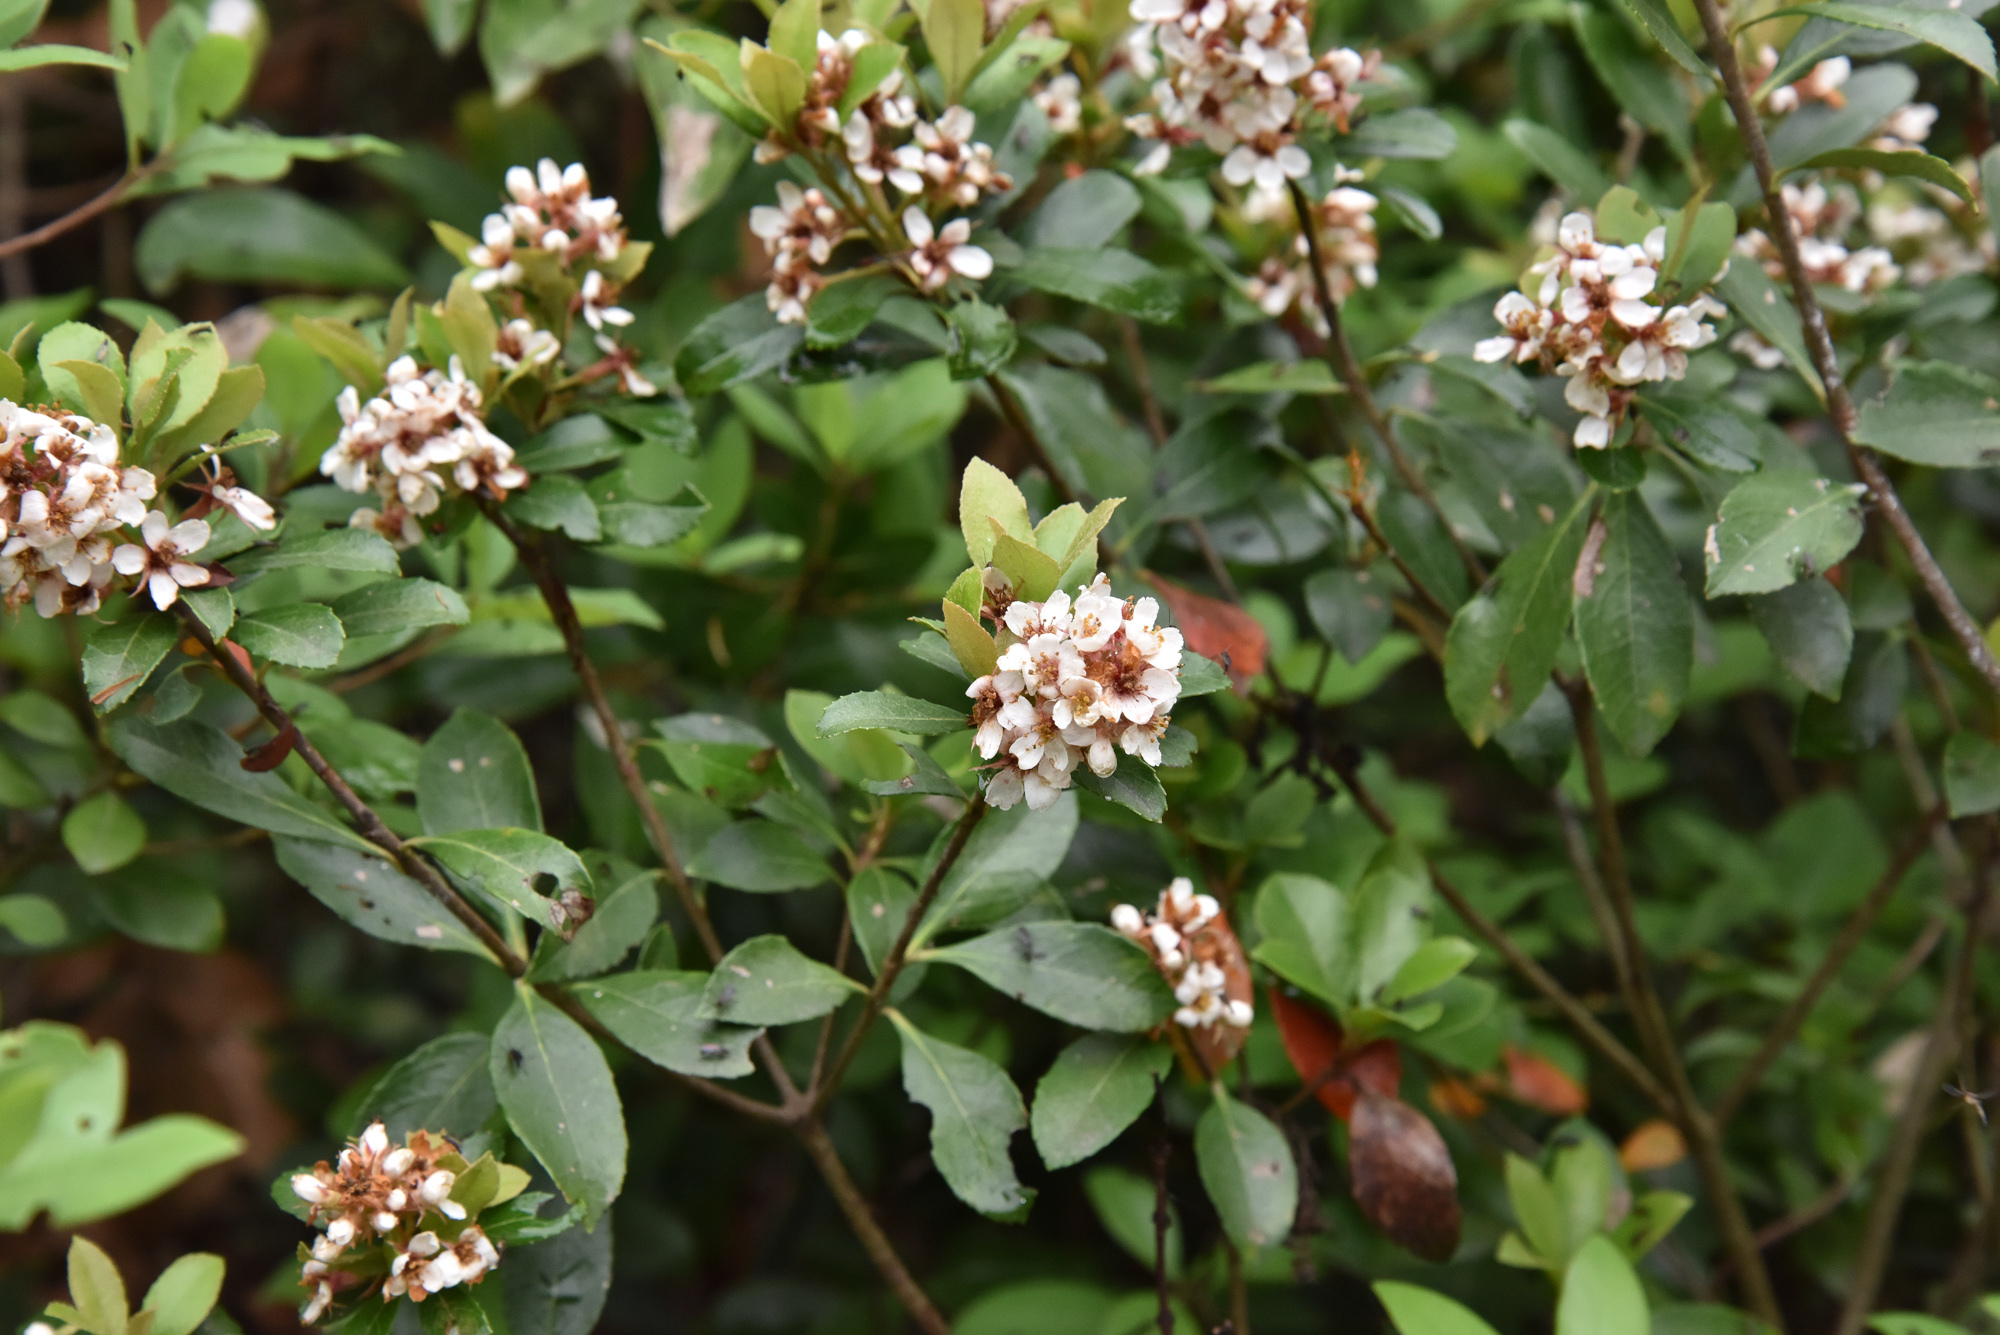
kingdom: Plantae
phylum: Tracheophyta
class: Magnoliopsida
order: Rosales
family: Rosaceae
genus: Rhaphiolepis
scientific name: Rhaphiolepis indica
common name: India-hawthorn
